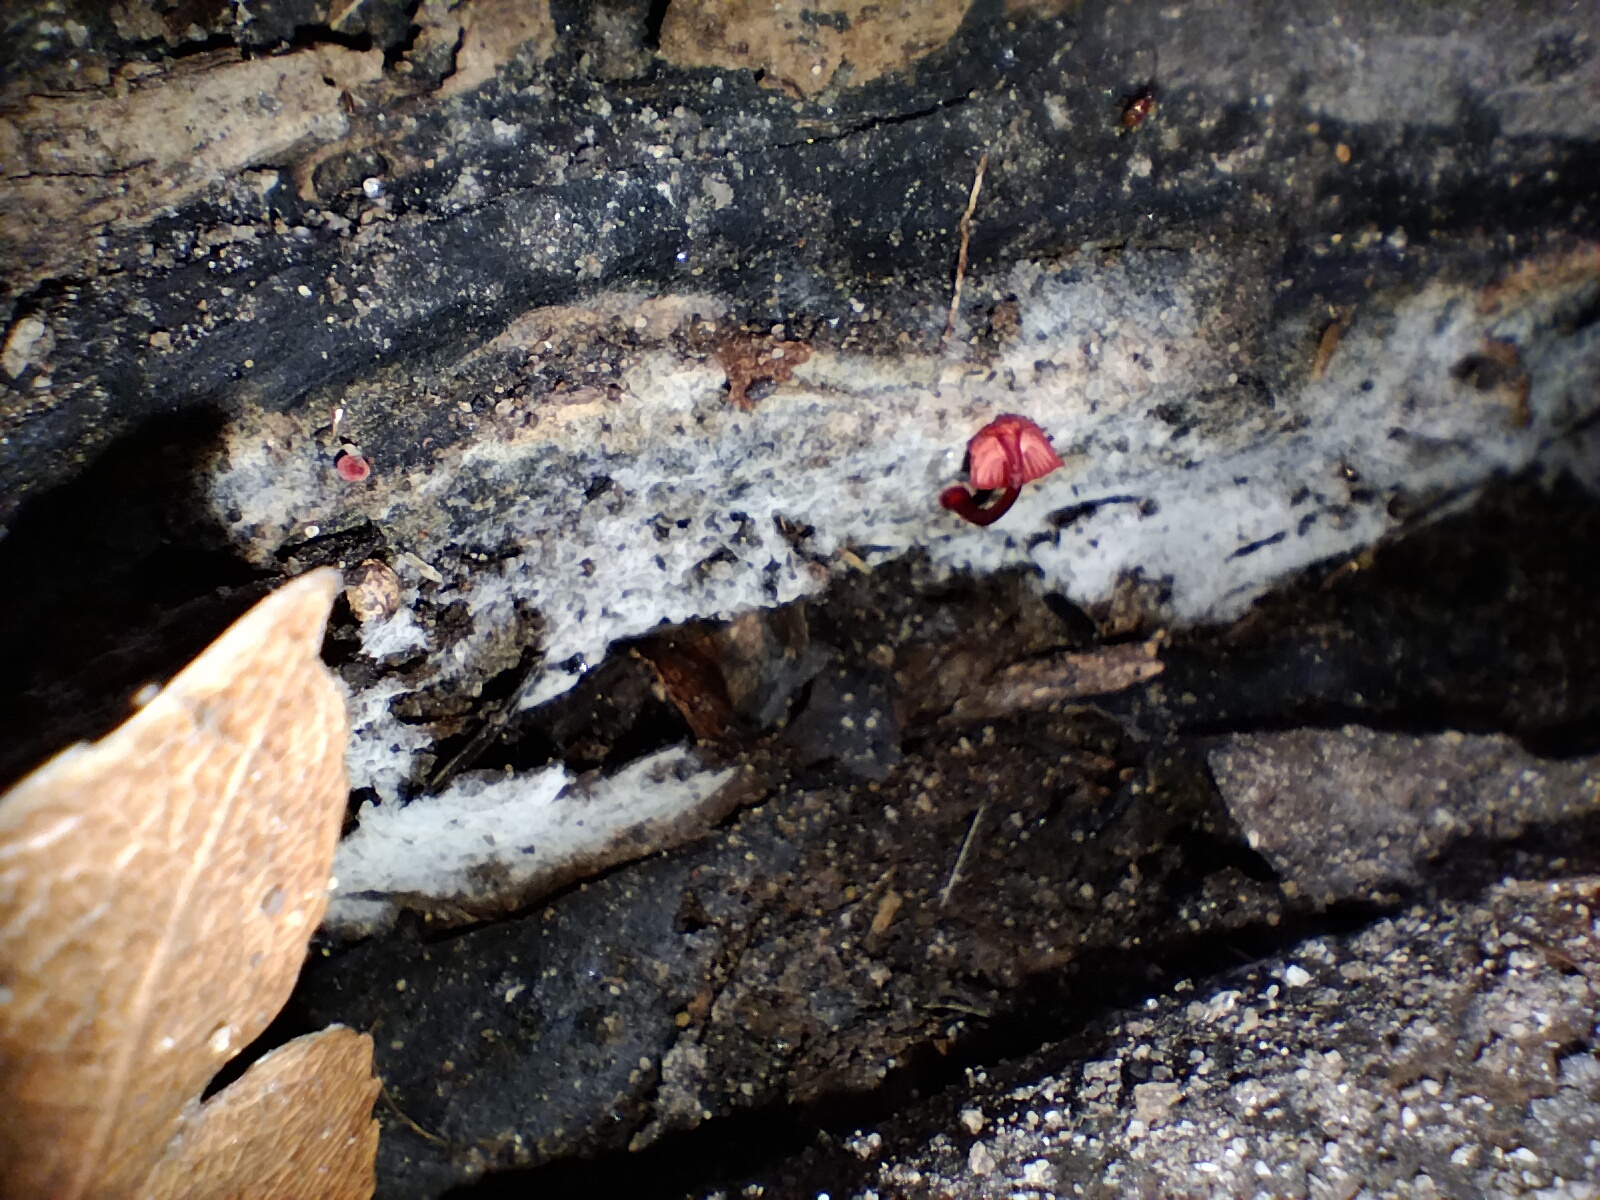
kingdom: Fungi
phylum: Basidiomycota
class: Agaricomycetes
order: Agaricales
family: Mycenaceae
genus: Cruentomycena
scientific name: Cruentomycena viscidocruenta
